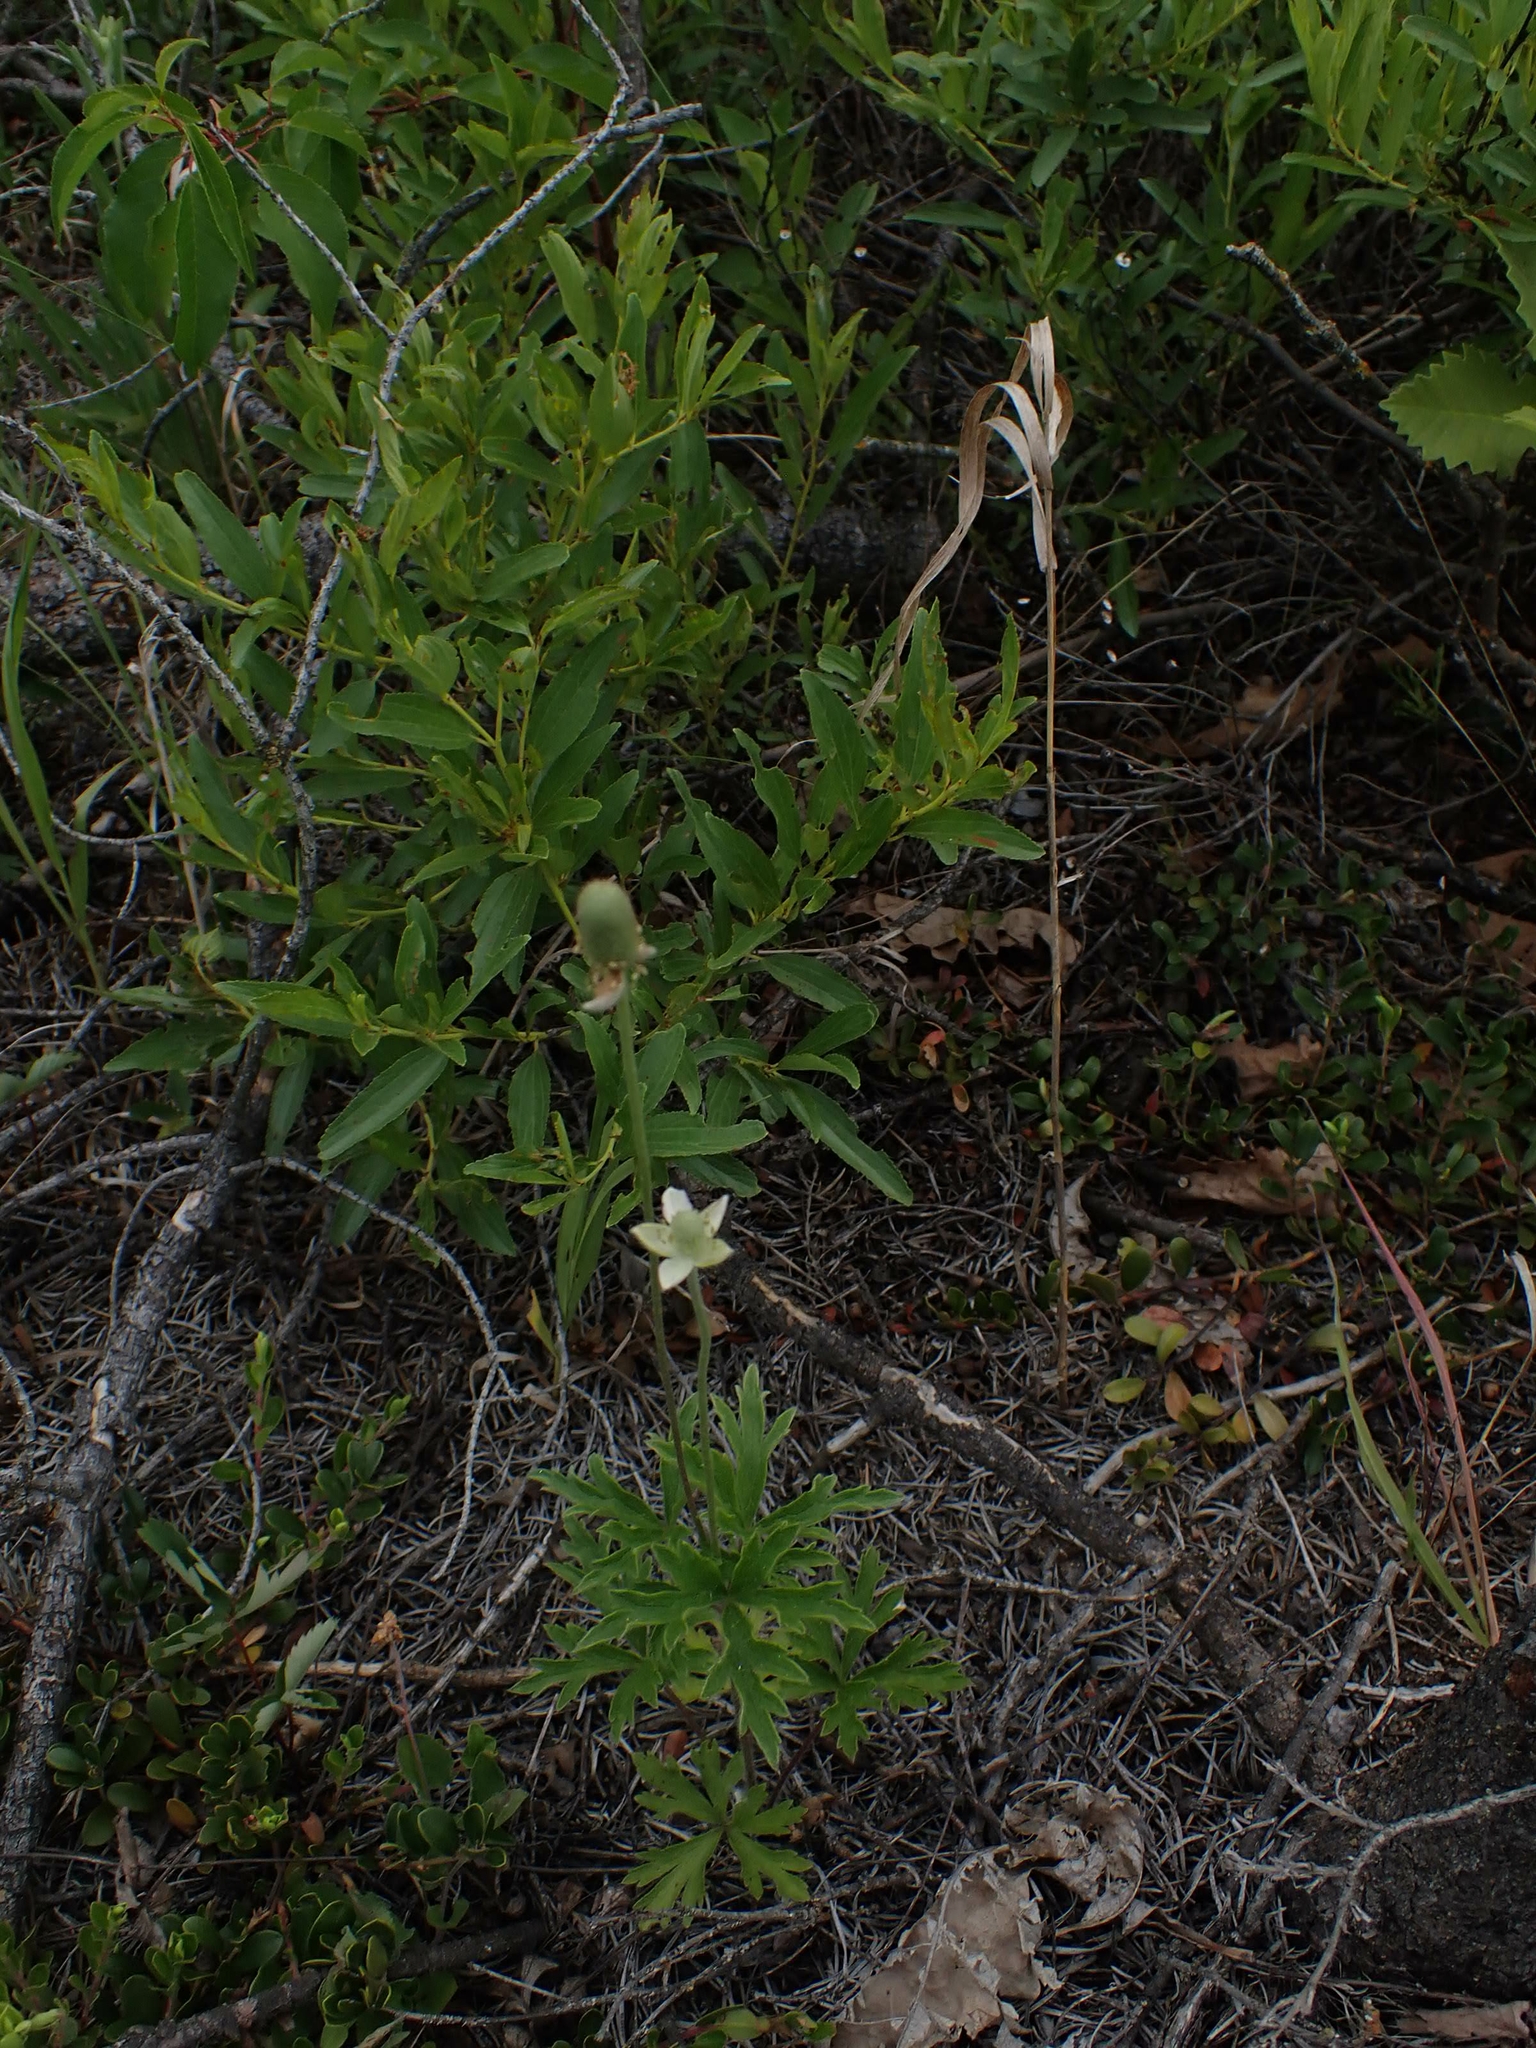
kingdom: Plantae
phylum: Tracheophyta
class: Magnoliopsida
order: Ranunculales
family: Ranunculaceae
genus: Anemone
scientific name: Anemone cylindrica
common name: Candle anemone
